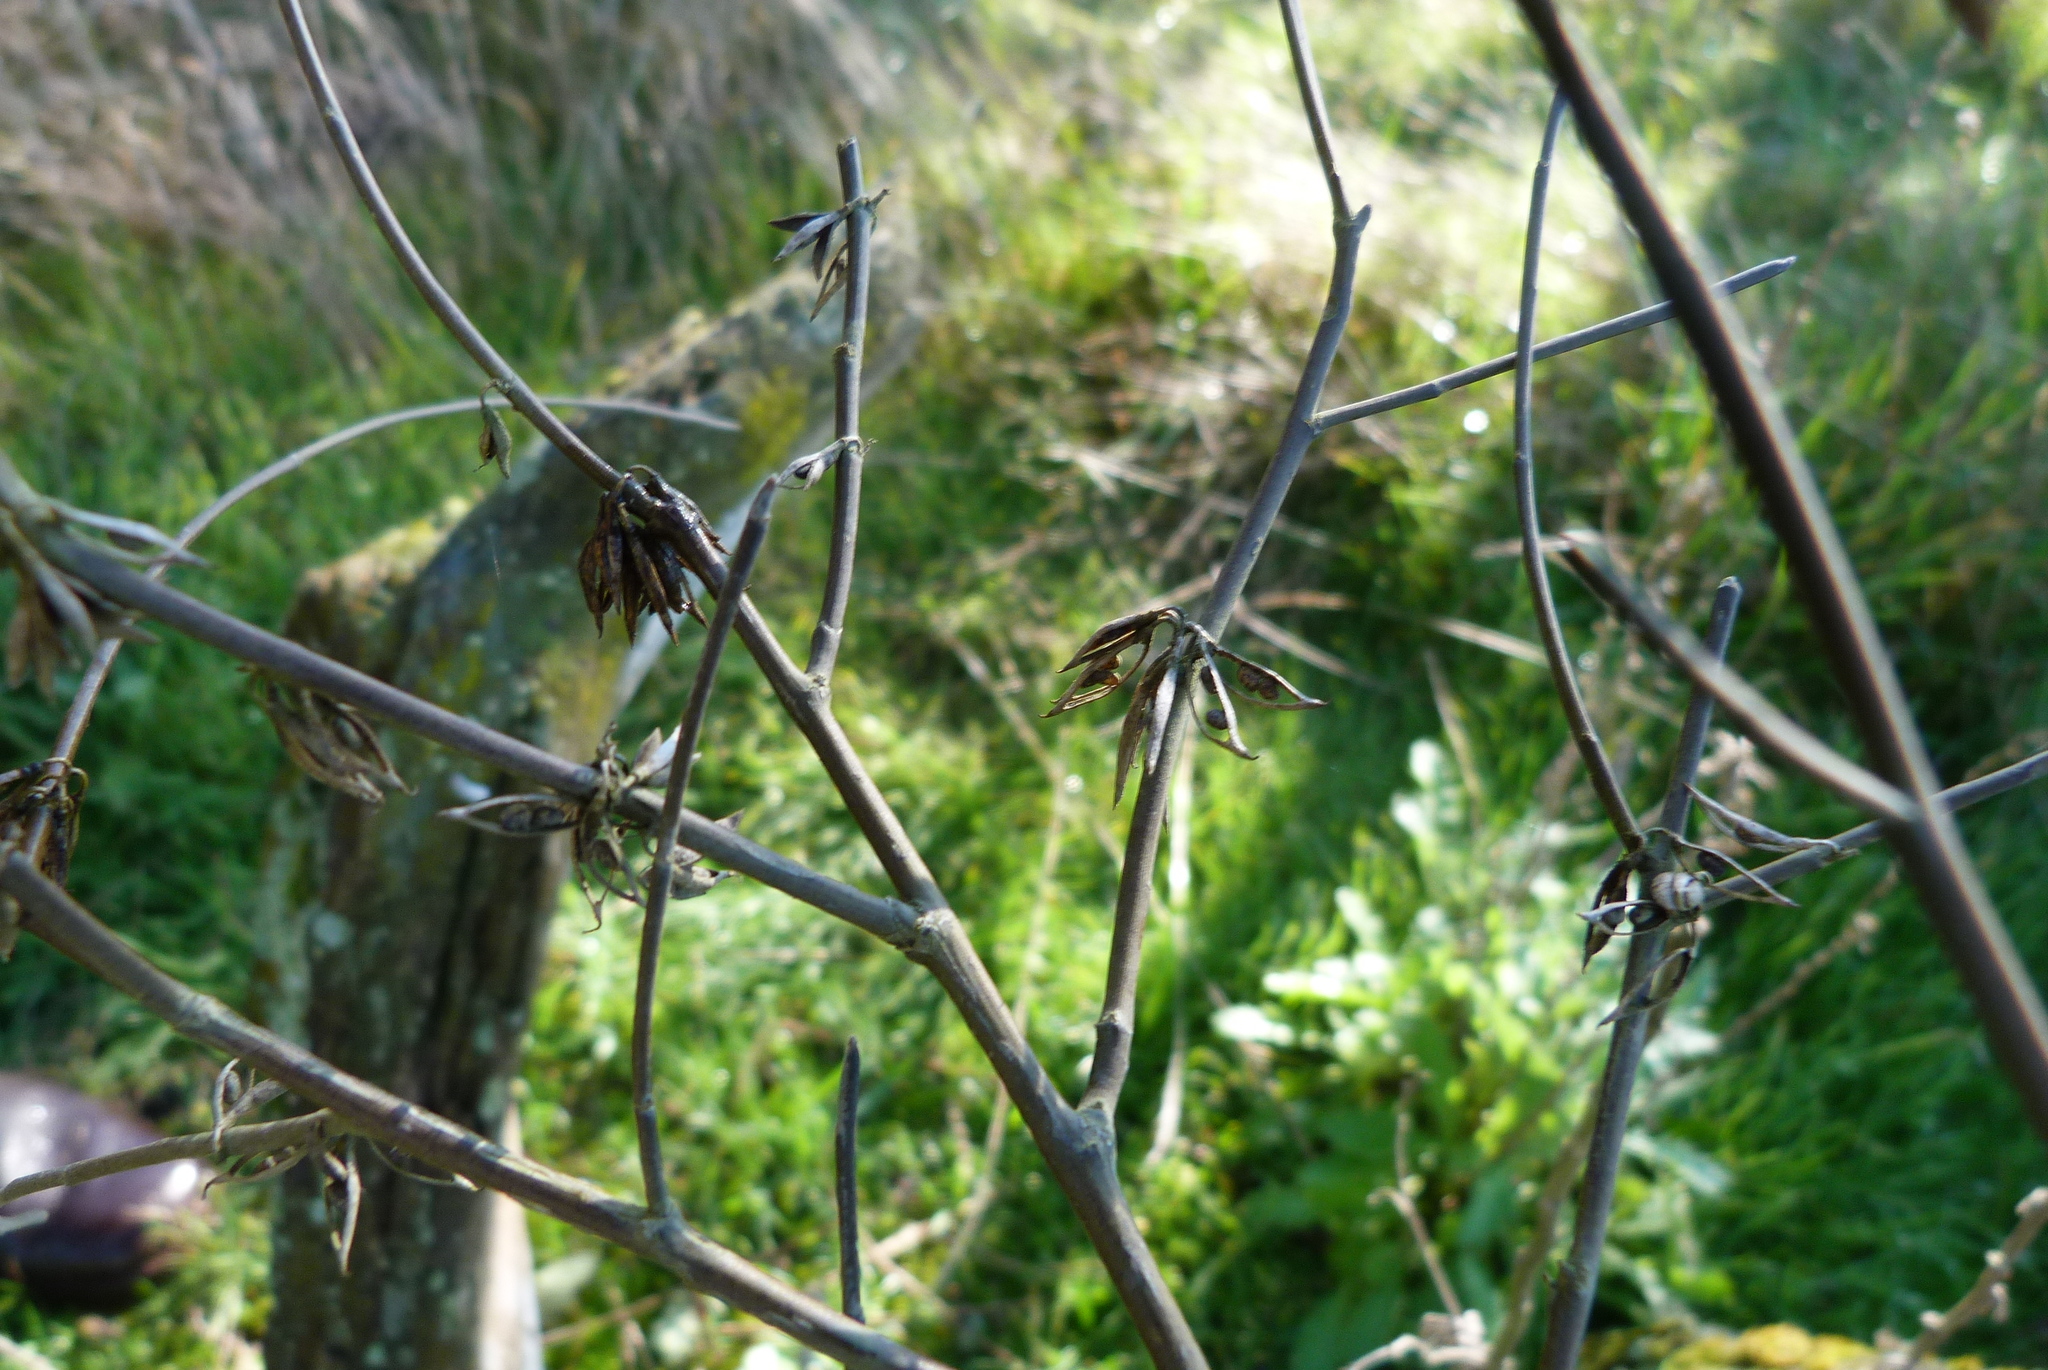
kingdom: Plantae
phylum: Tracheophyta
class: Magnoliopsida
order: Fabales
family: Fabaceae
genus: Carmichaelia
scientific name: Carmichaelia australis
